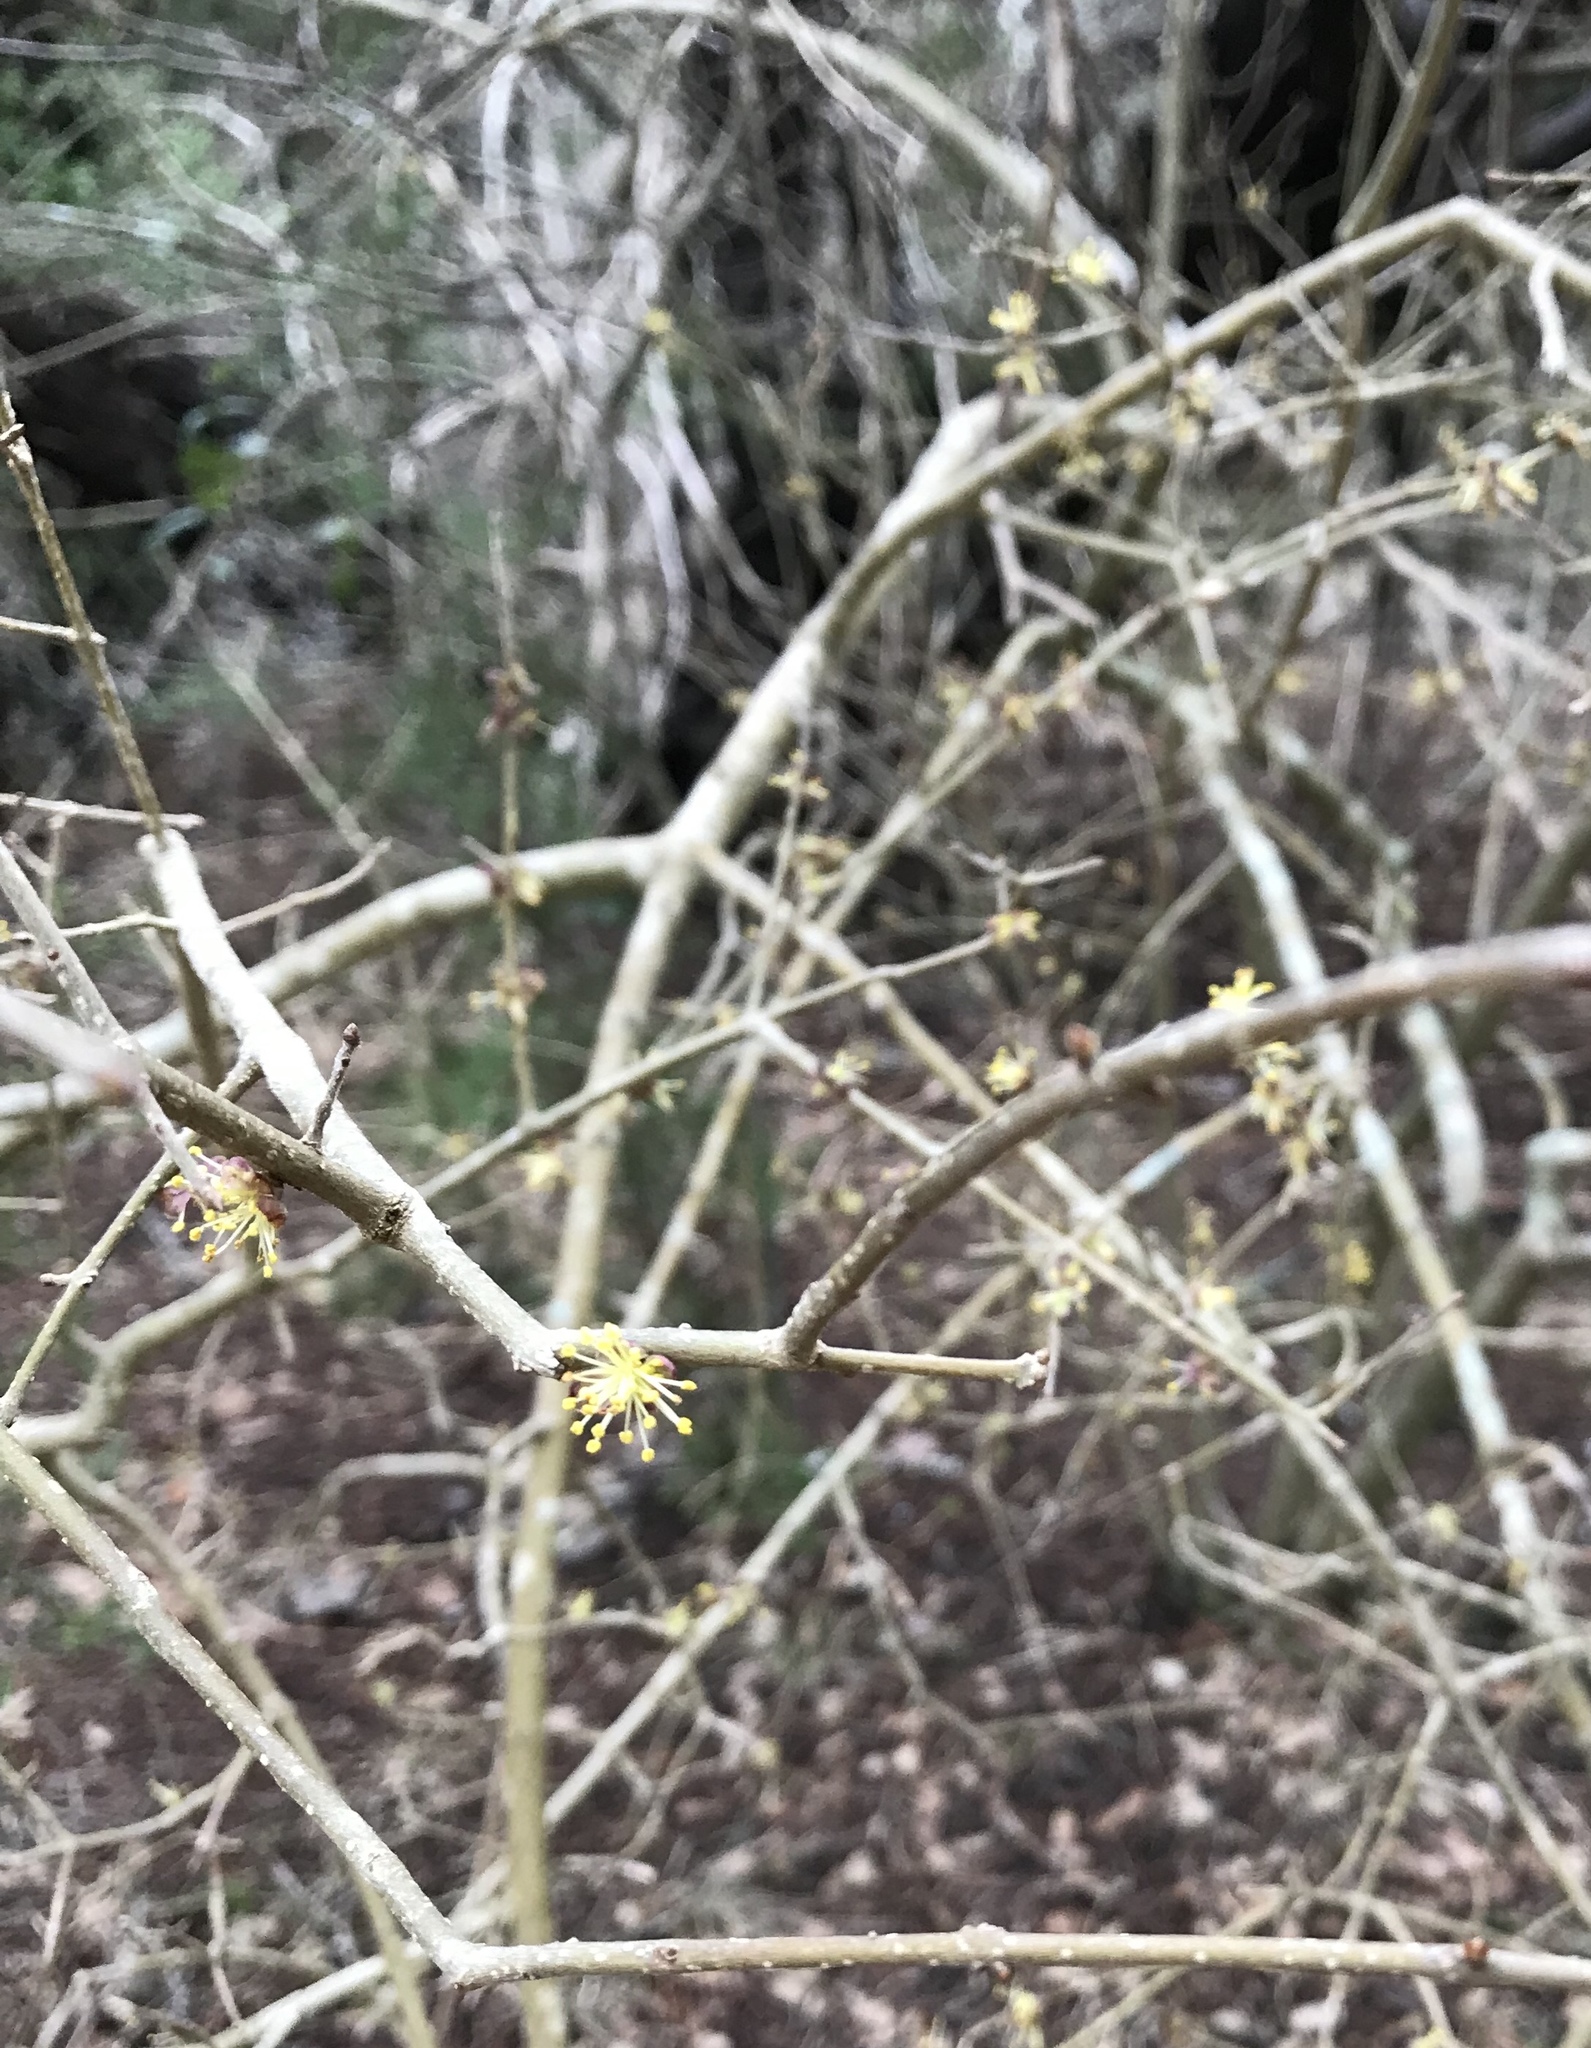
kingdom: Plantae
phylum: Tracheophyta
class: Magnoliopsida
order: Lamiales
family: Oleaceae
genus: Forestiera
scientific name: Forestiera pubescens
